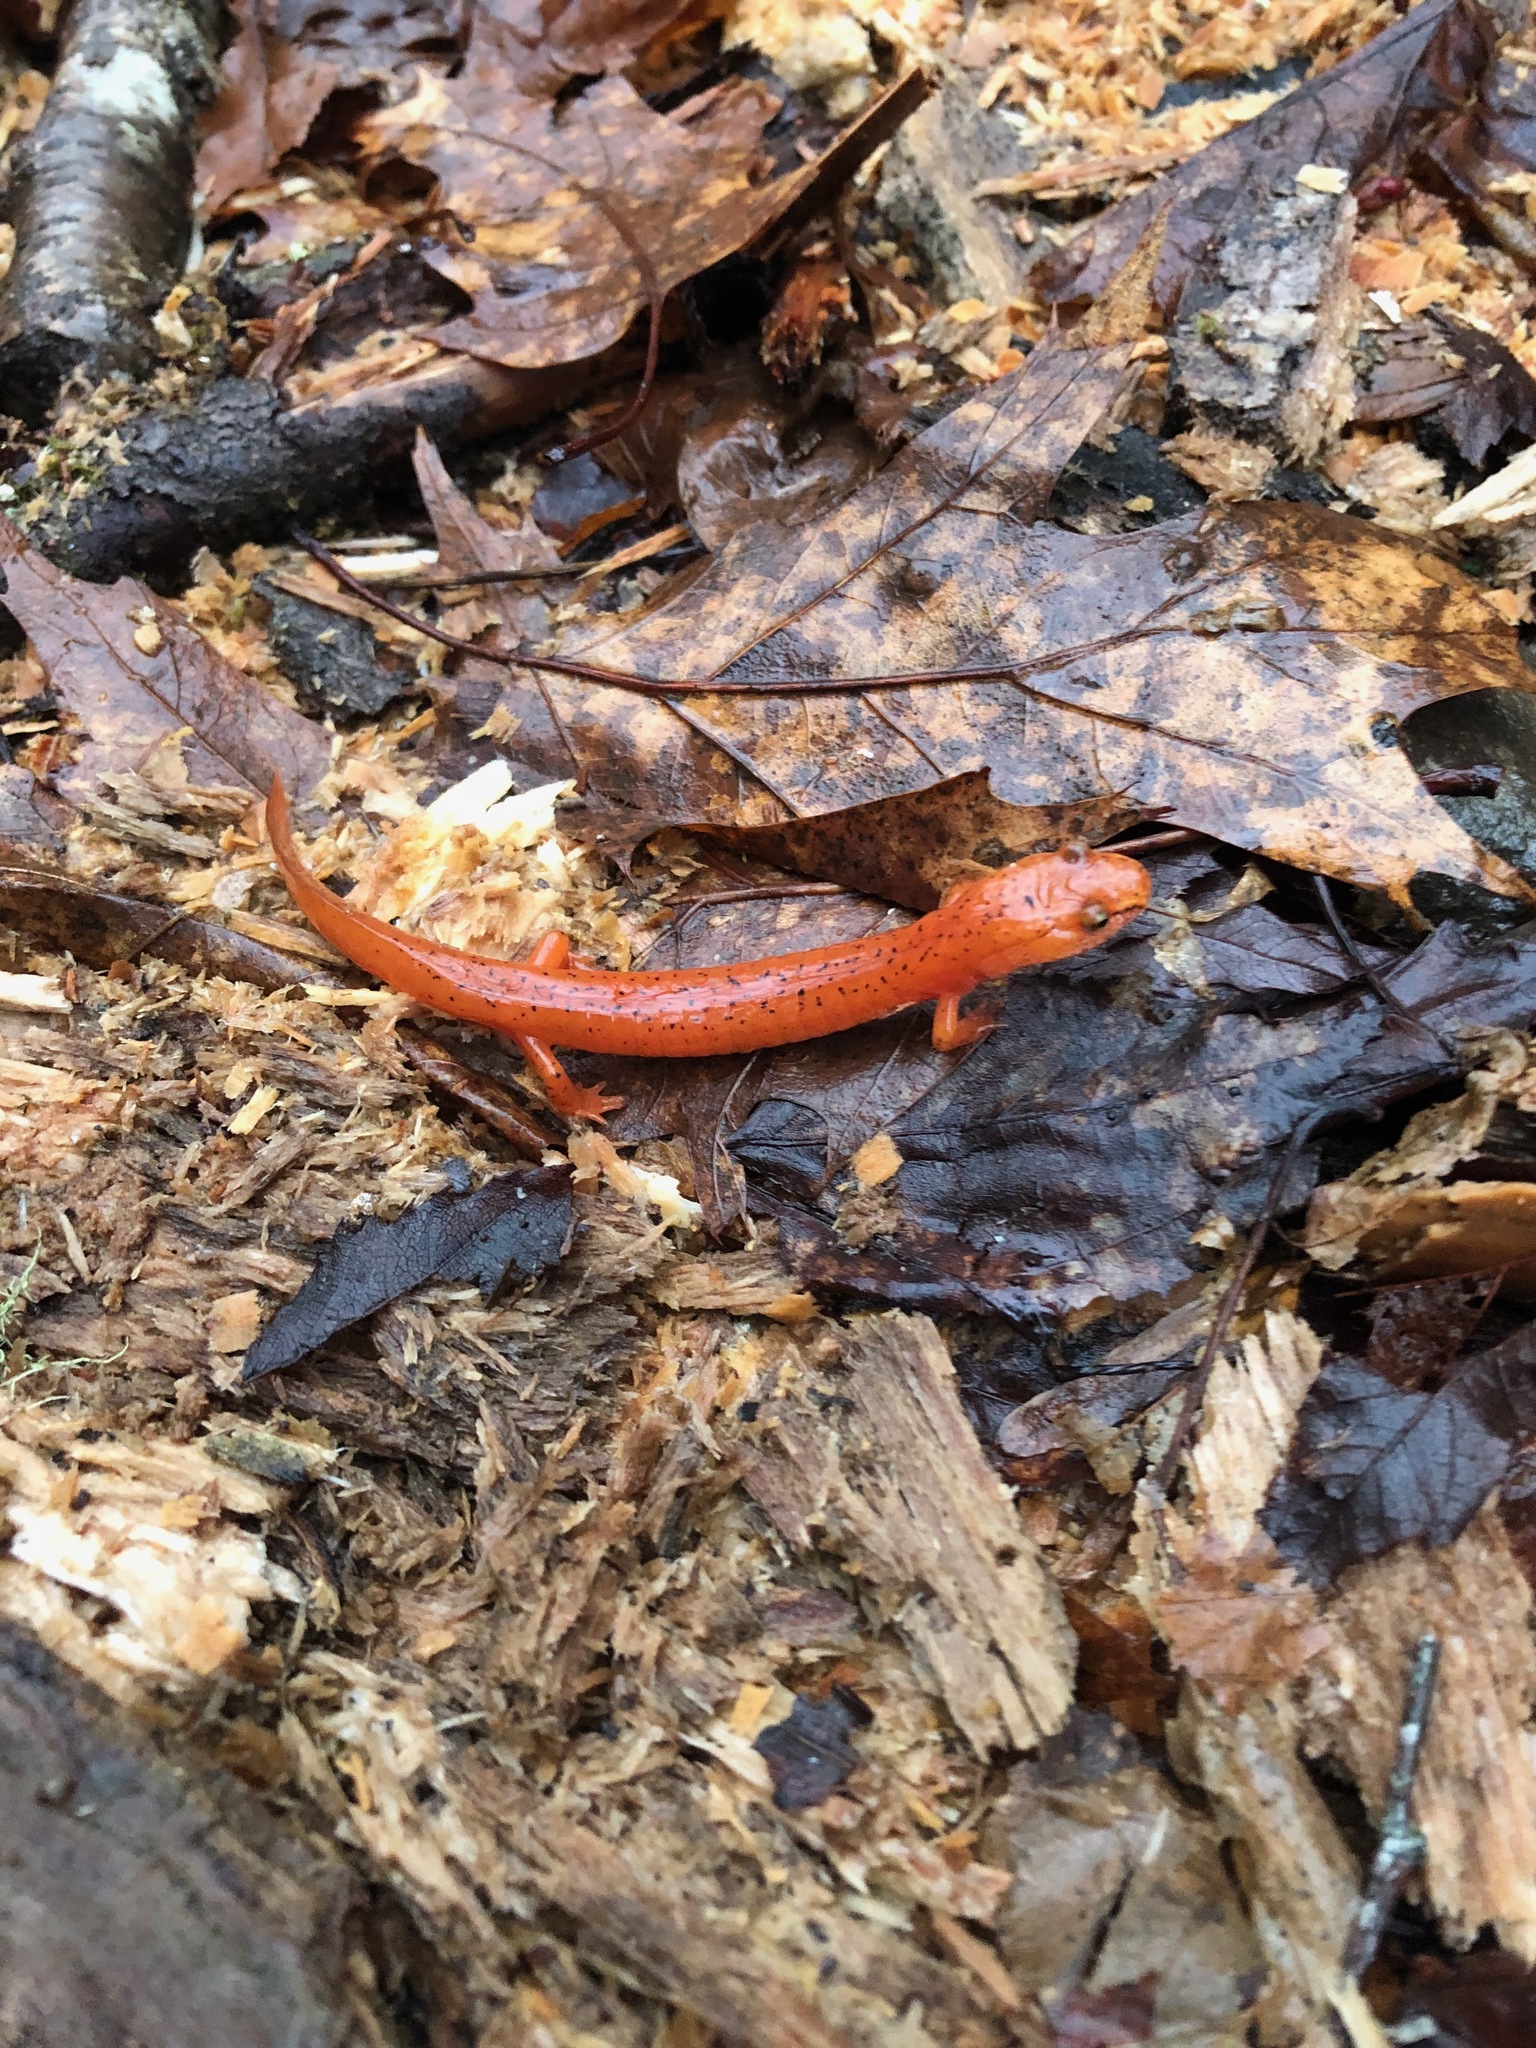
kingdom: Animalia
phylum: Chordata
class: Amphibia
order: Caudata
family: Plethodontidae
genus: Gyrinophilus
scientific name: Gyrinophilus porphyriticus
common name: Spring salamander
